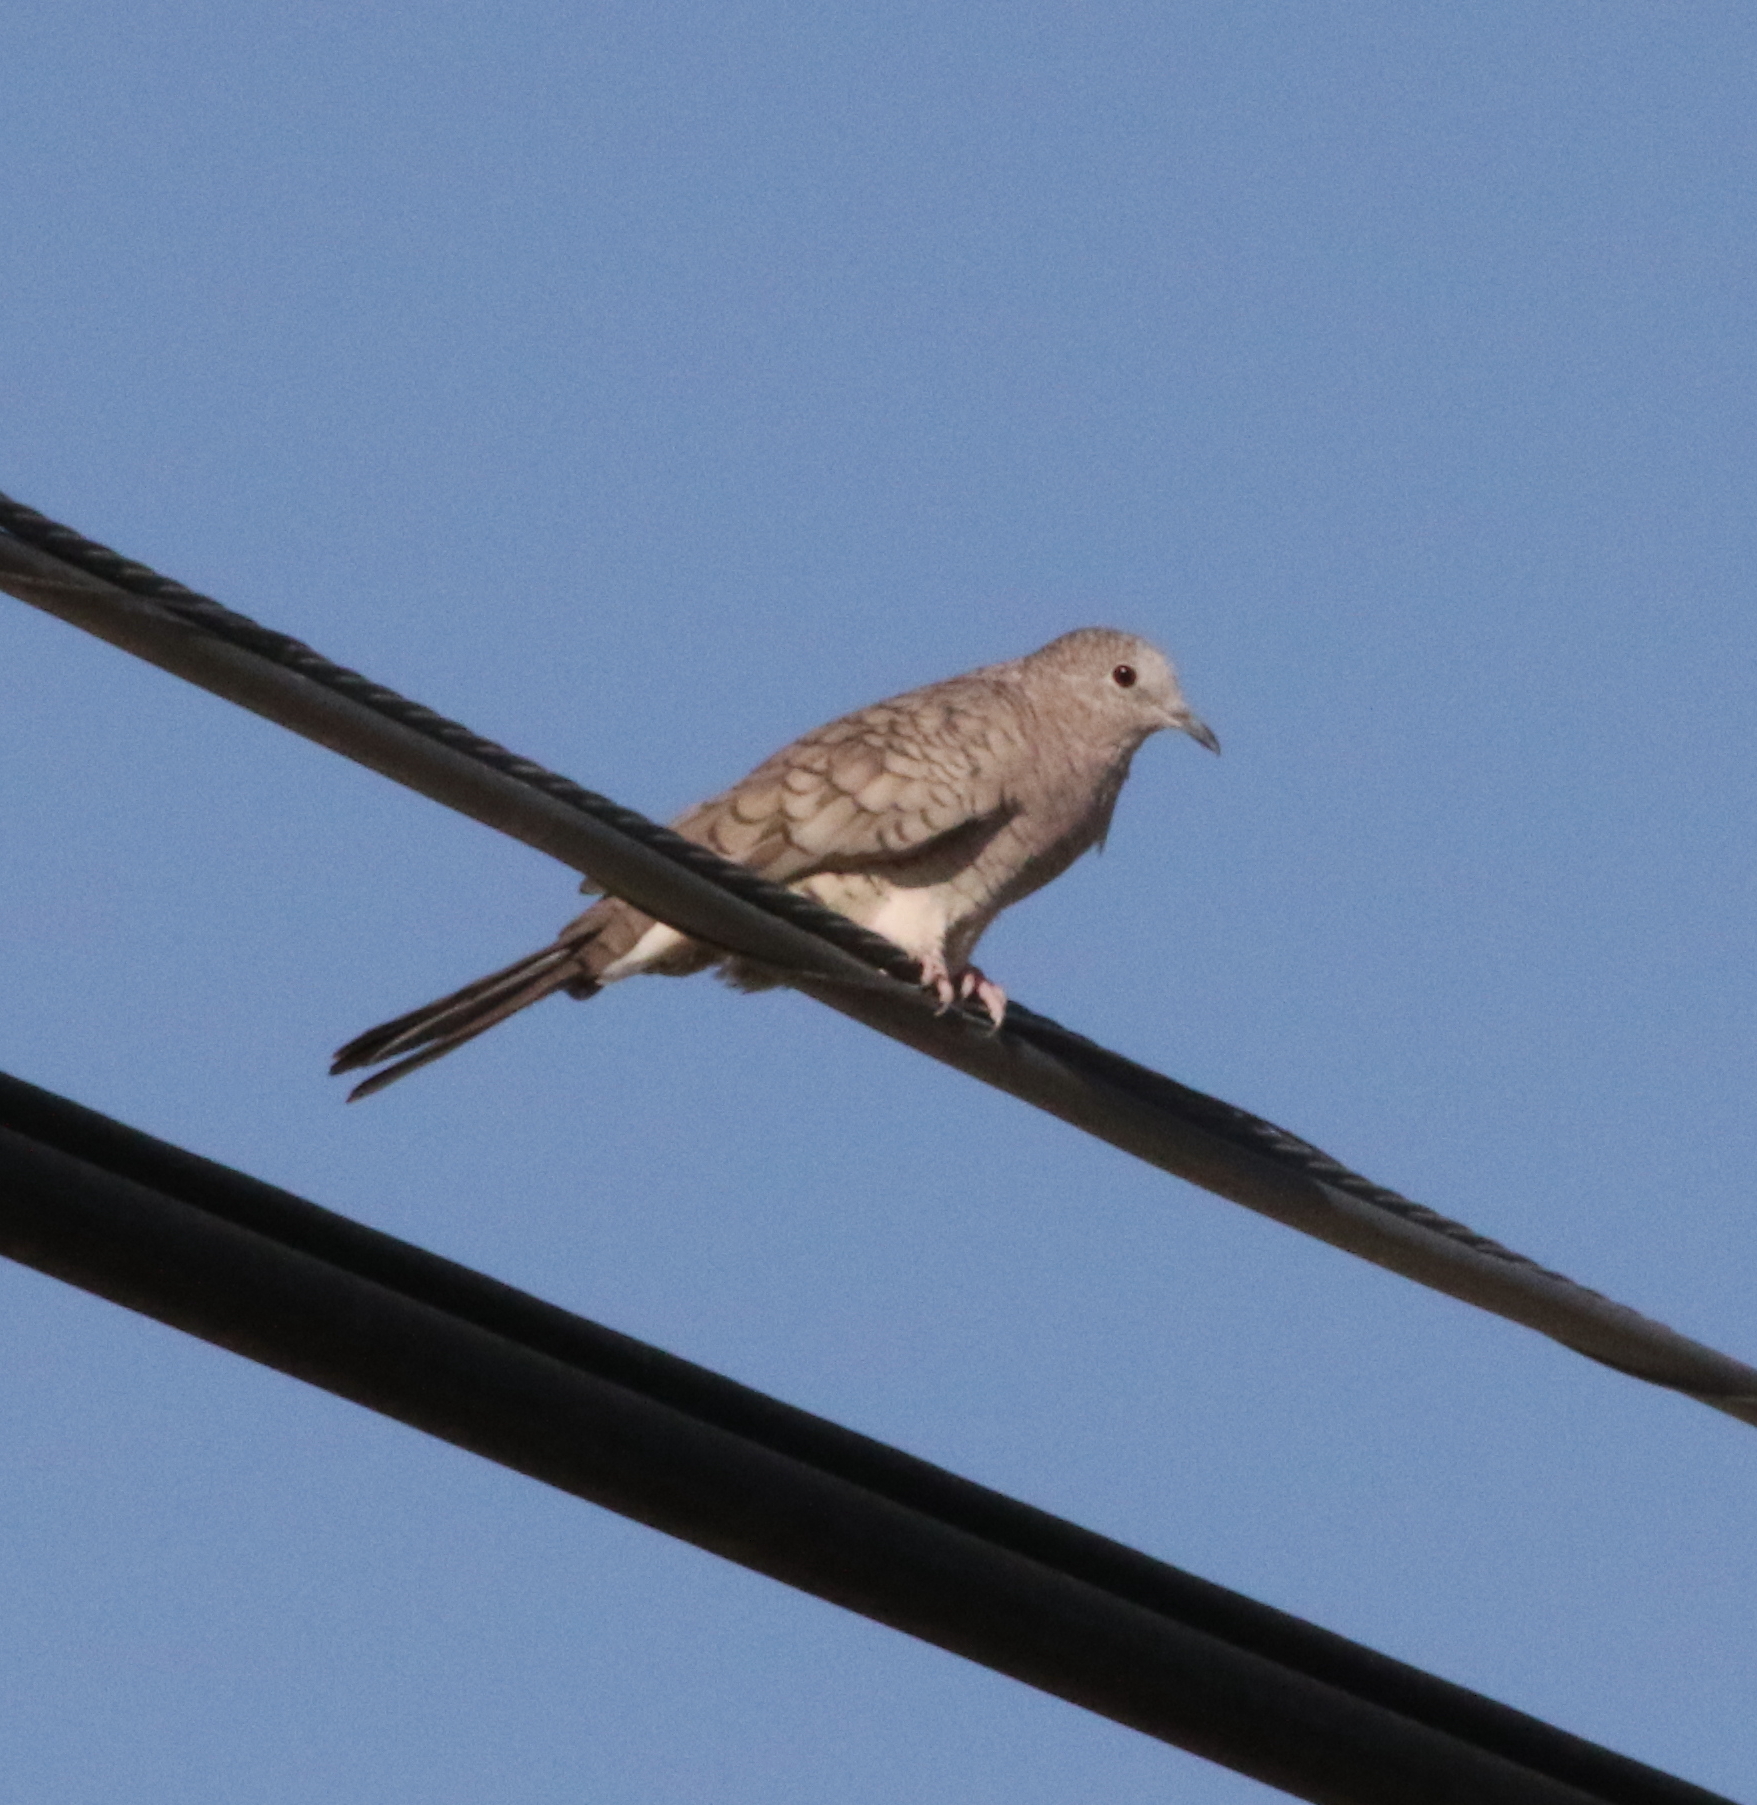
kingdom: Animalia
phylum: Chordata
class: Aves
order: Columbiformes
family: Columbidae
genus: Columbina
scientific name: Columbina inca
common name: Inca dove
